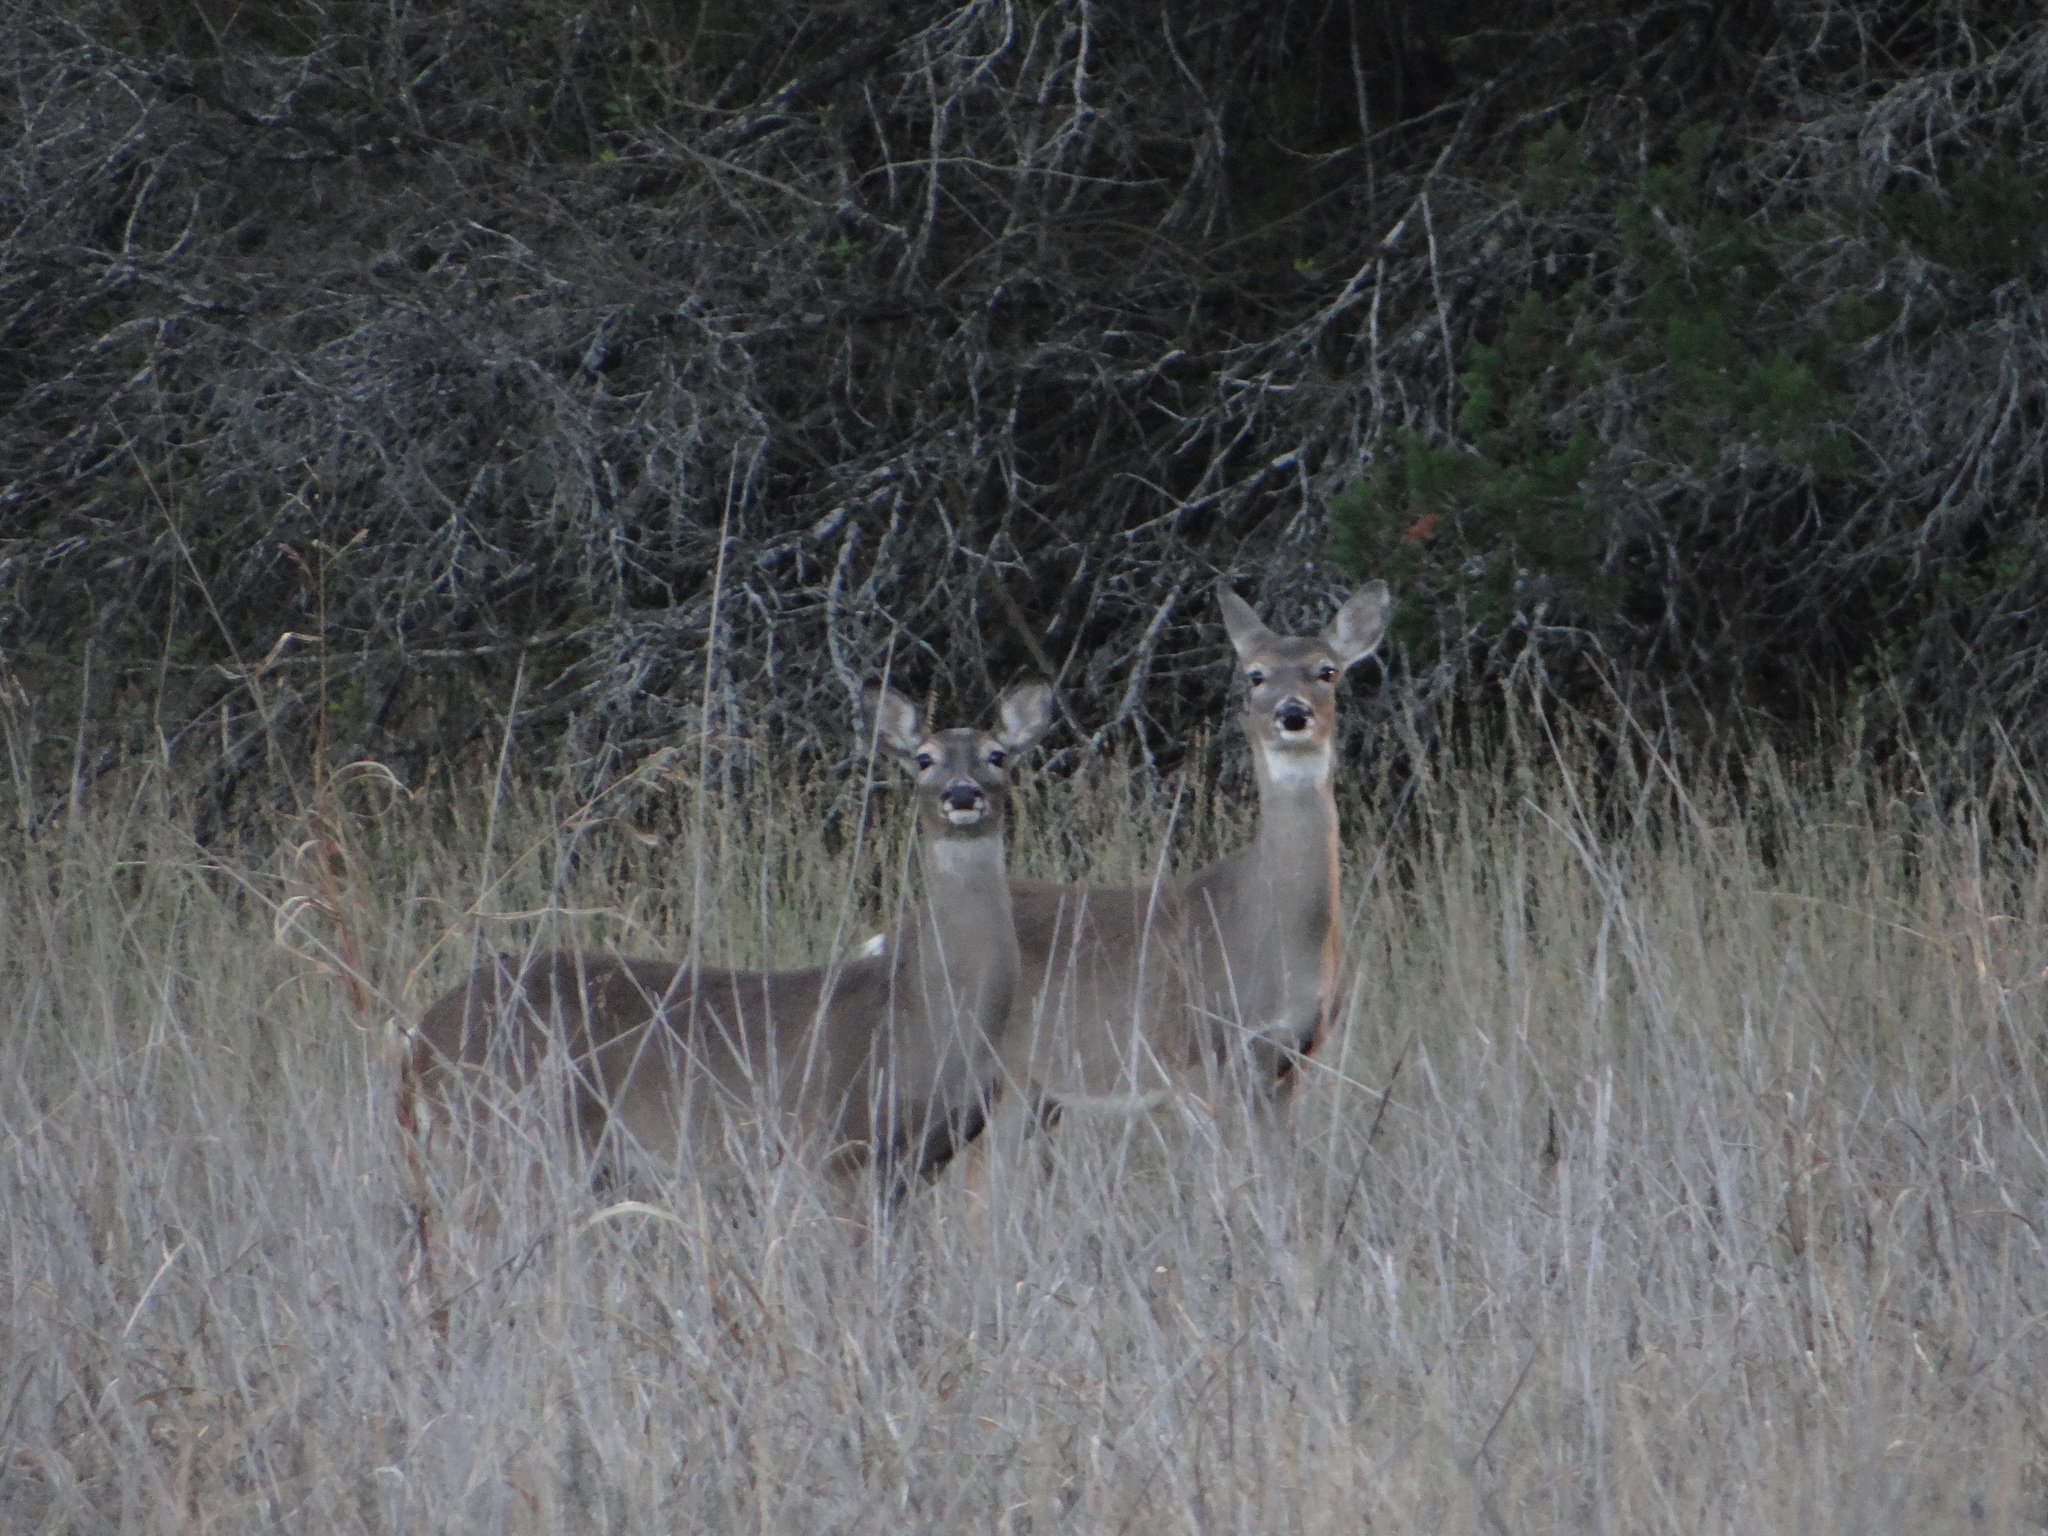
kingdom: Animalia
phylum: Chordata
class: Mammalia
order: Artiodactyla
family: Cervidae
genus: Odocoileus
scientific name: Odocoileus virginianus
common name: White-tailed deer
